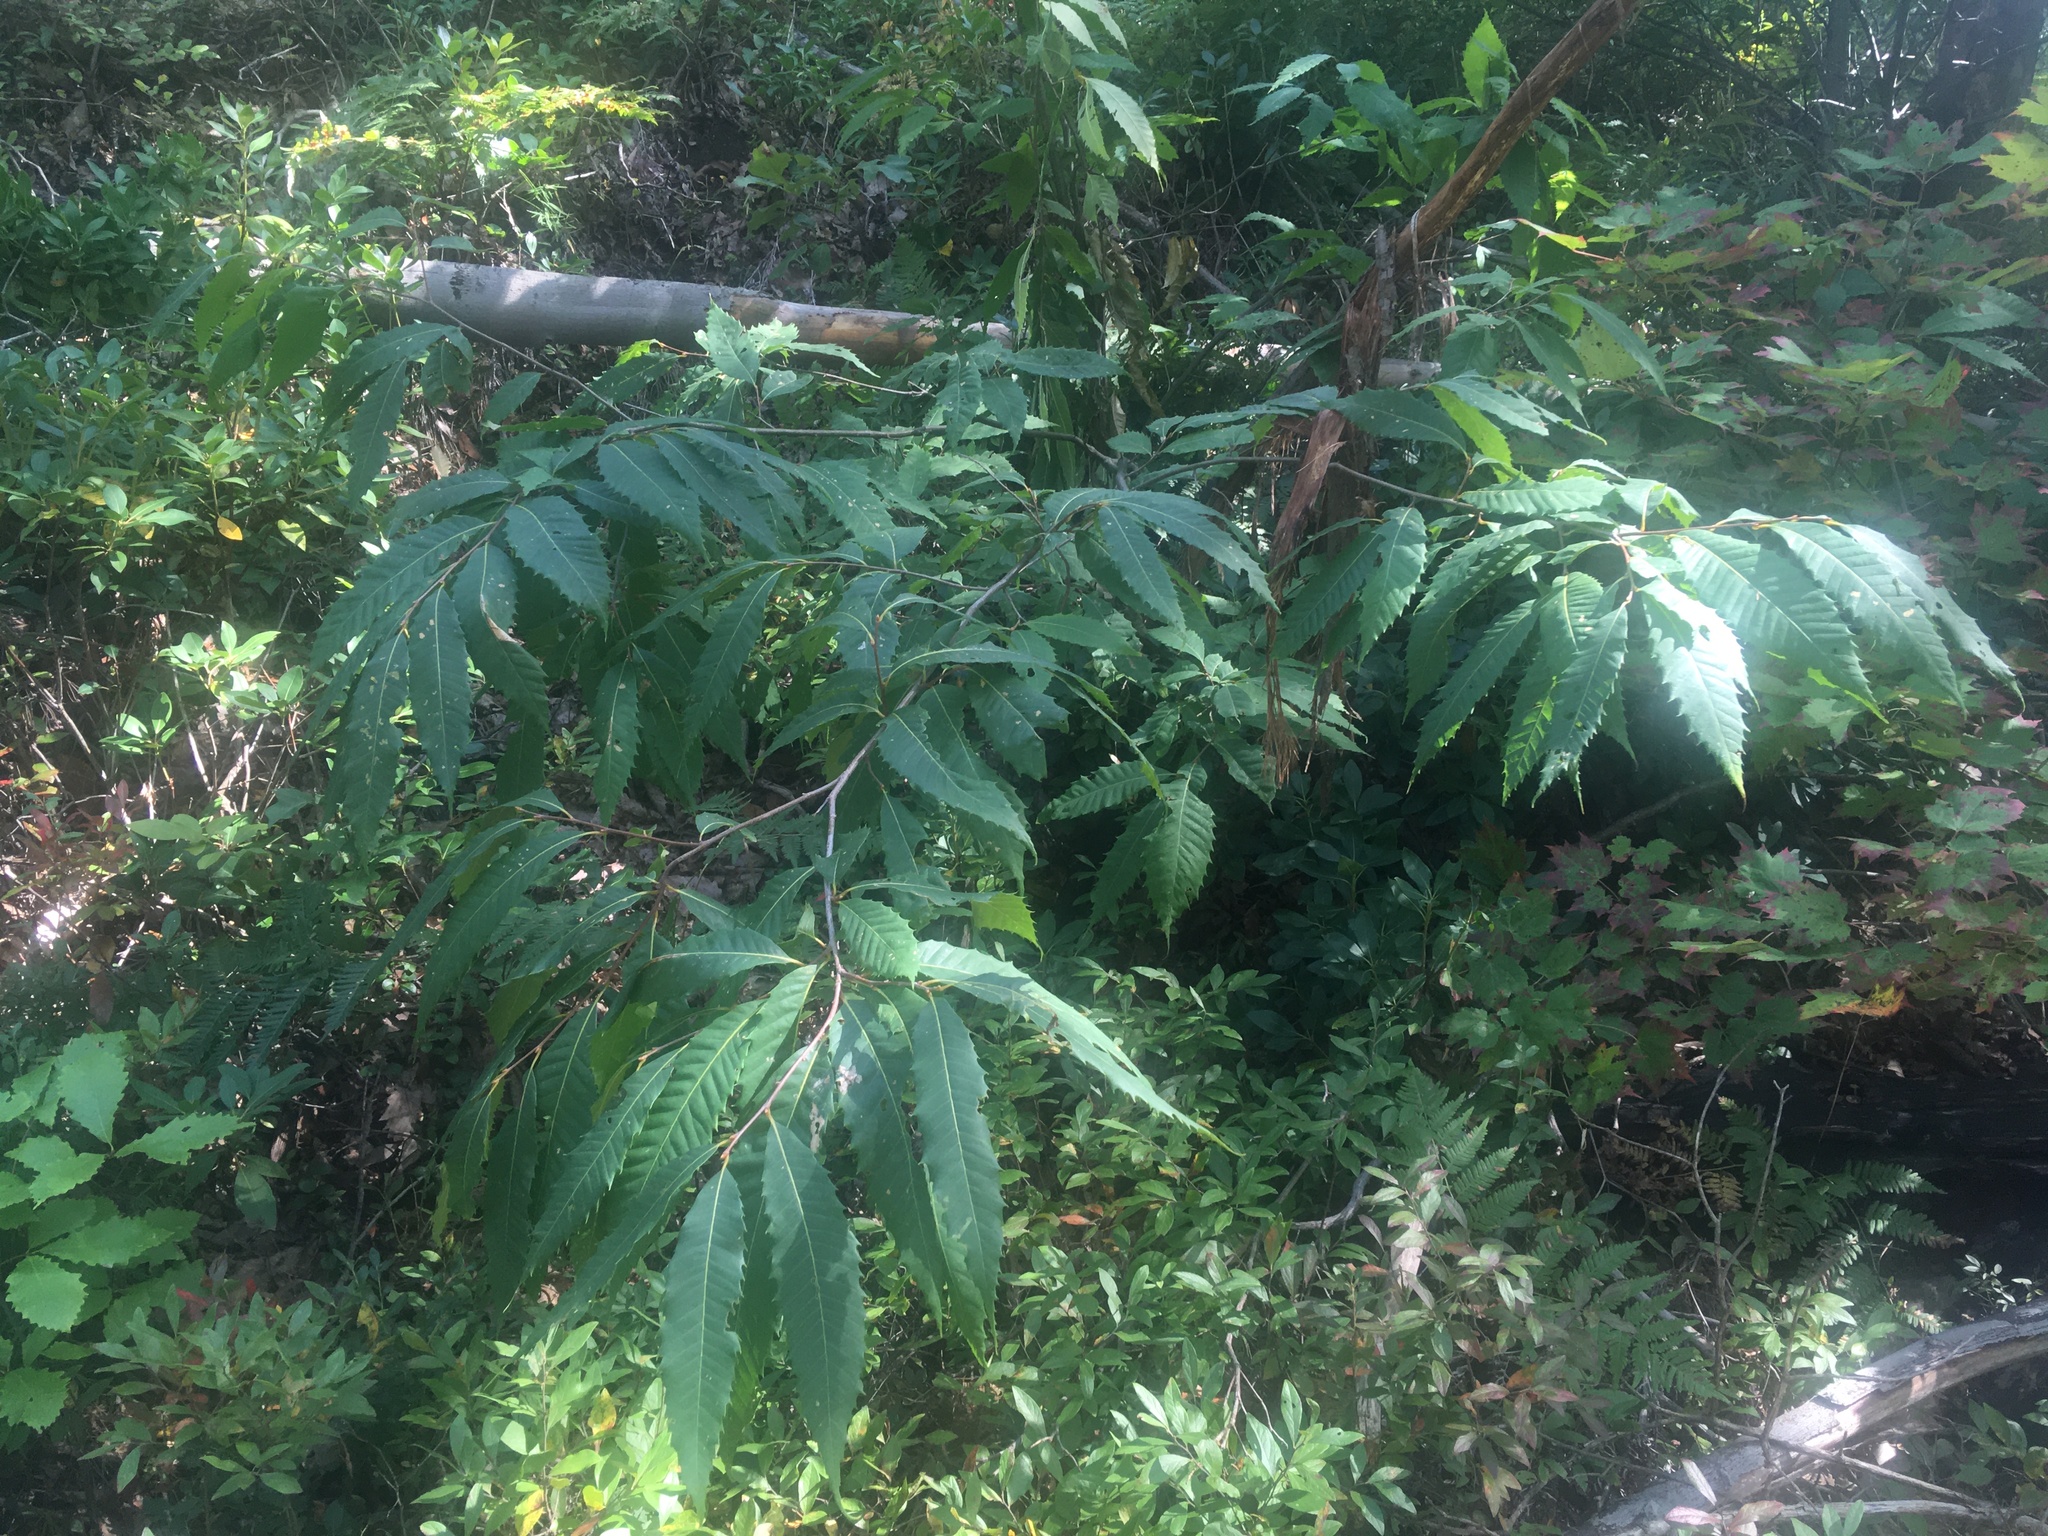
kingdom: Plantae
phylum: Tracheophyta
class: Magnoliopsida
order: Fagales
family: Fagaceae
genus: Castanea
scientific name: Castanea dentata
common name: American chestnut
